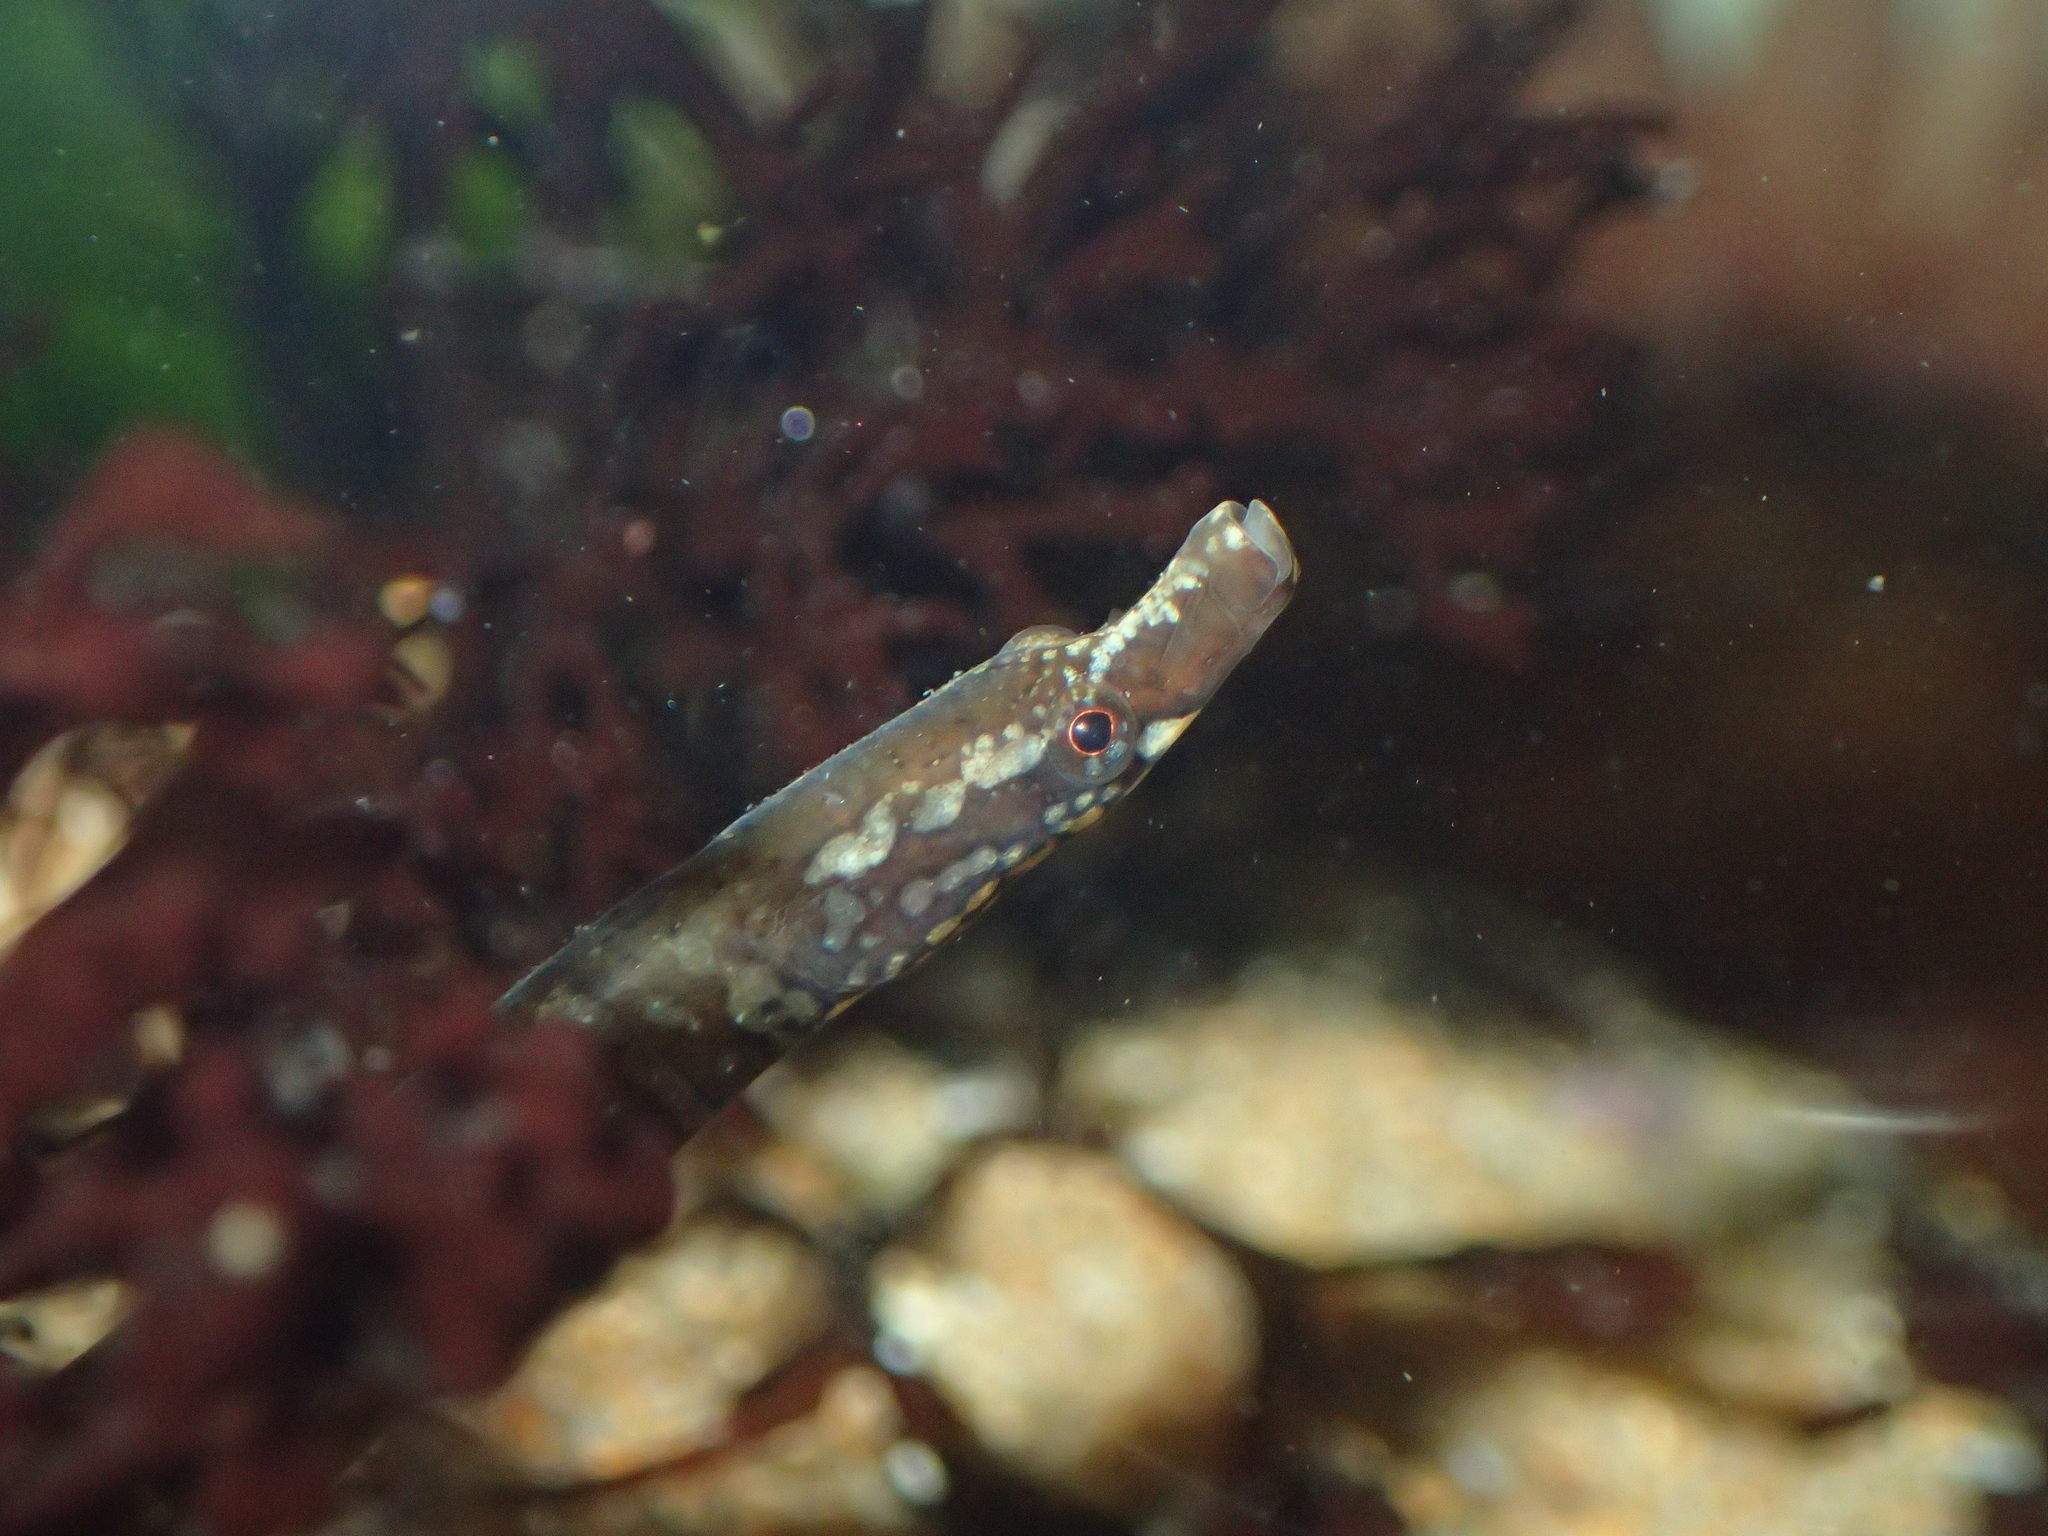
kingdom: Animalia
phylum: Chordata
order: Syngnathiformes
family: Syngnathidae
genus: Nerophis
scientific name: Nerophis lumbriciformis
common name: Worm pipefish
